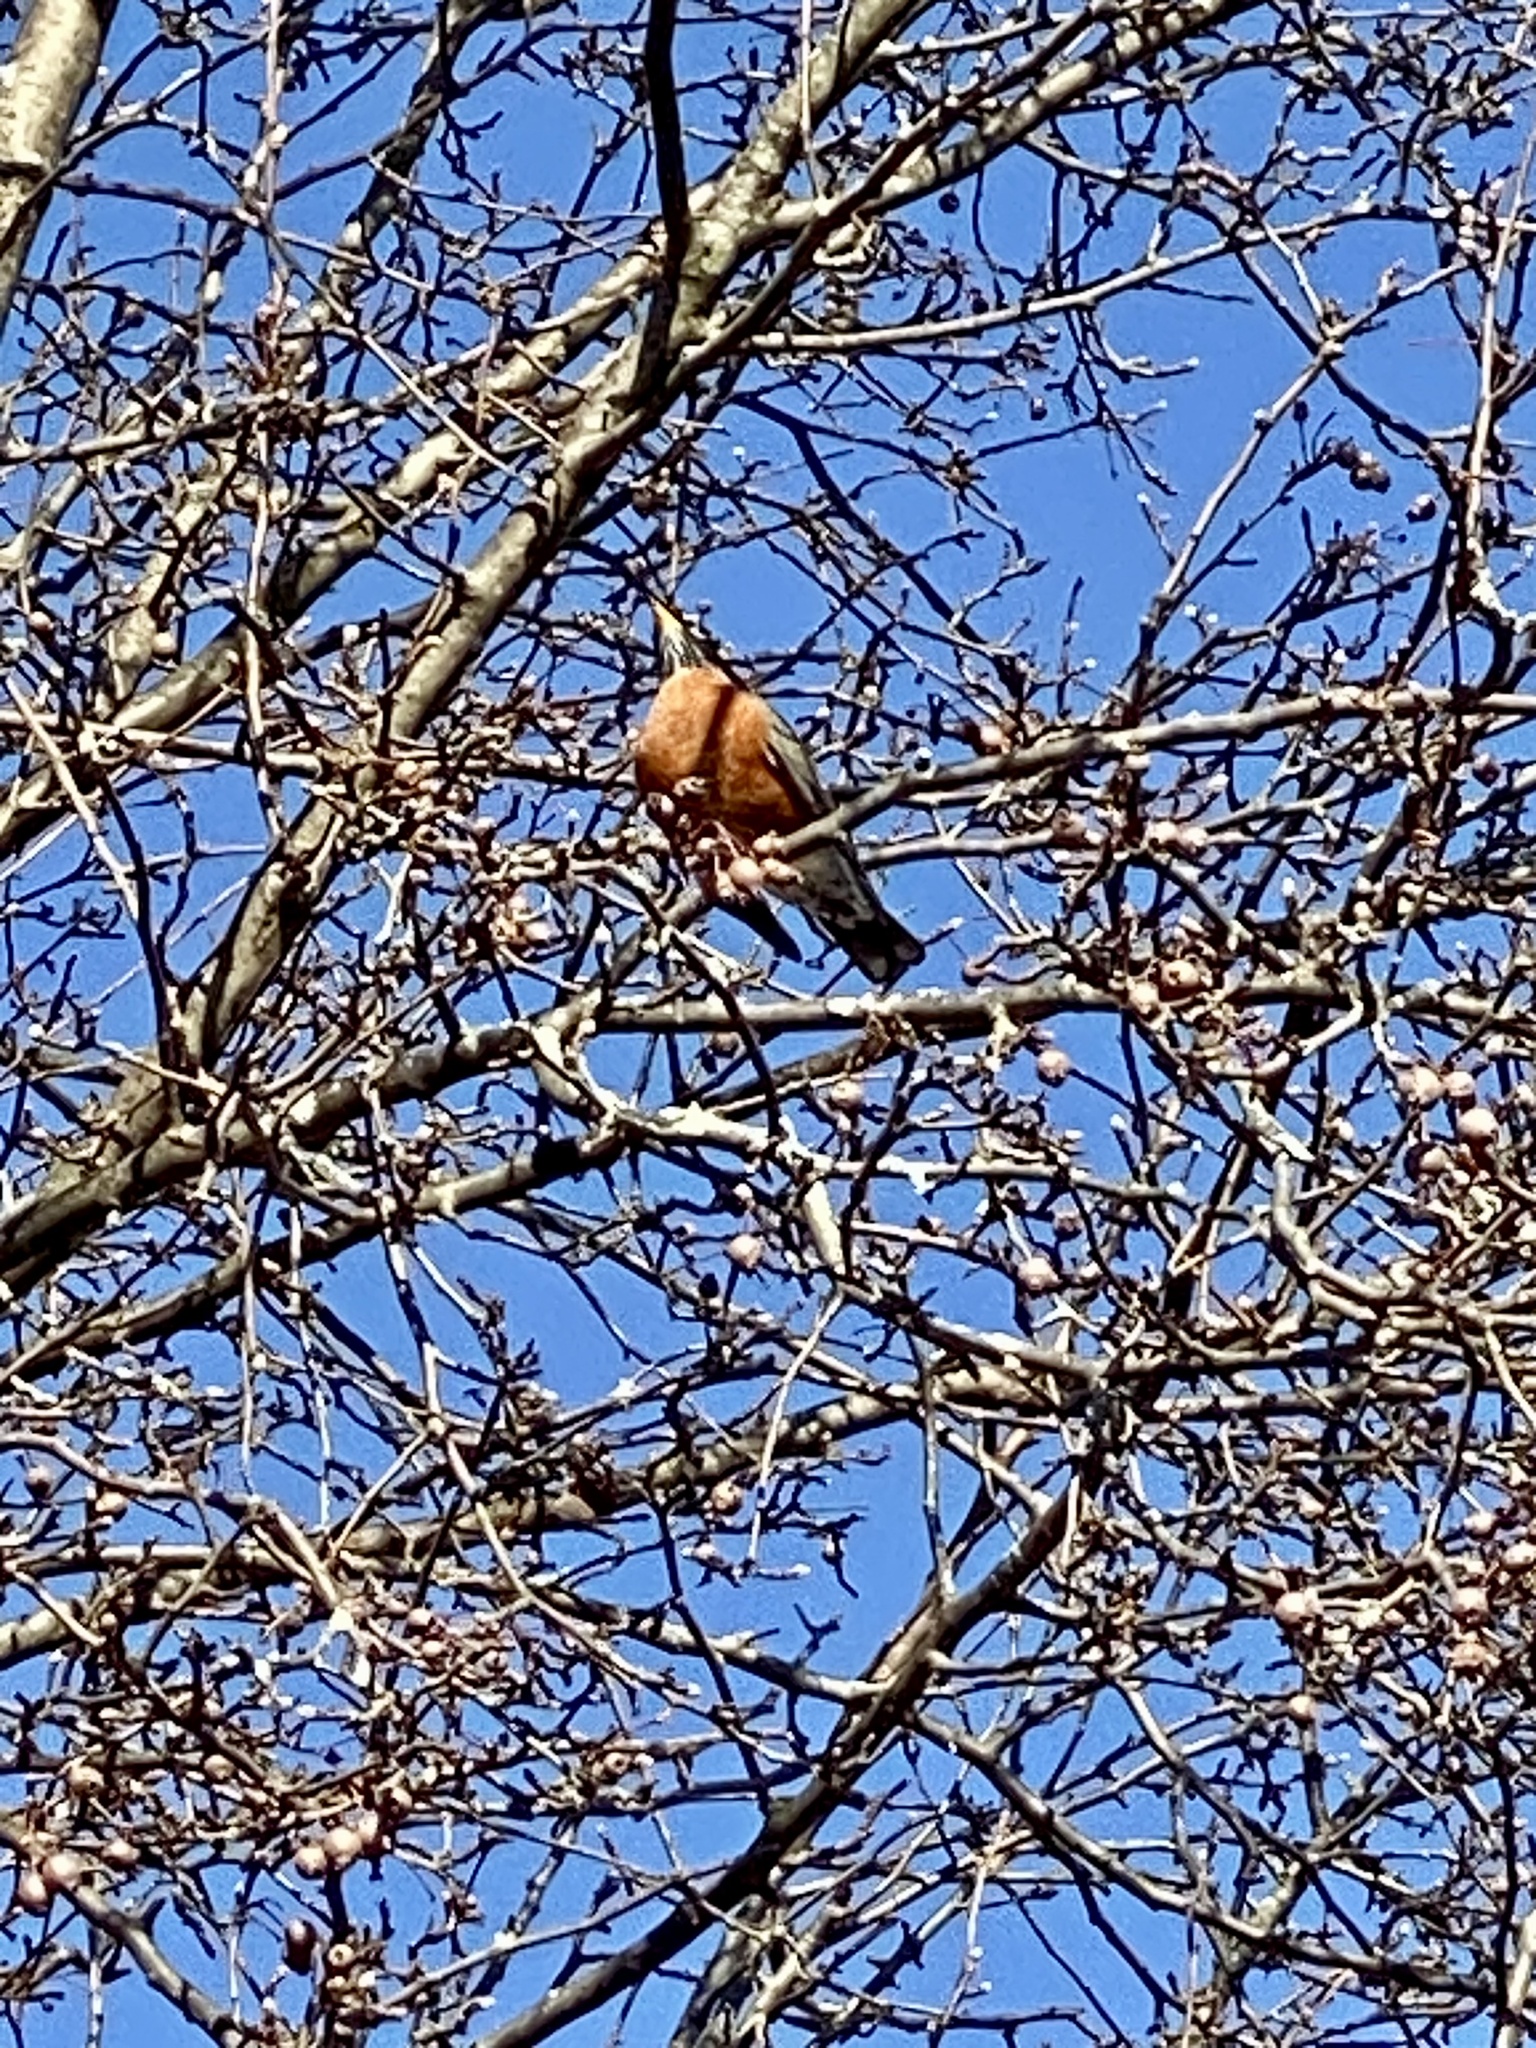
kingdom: Animalia
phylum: Chordata
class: Aves
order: Passeriformes
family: Turdidae
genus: Turdus
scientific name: Turdus migratorius
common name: American robin
